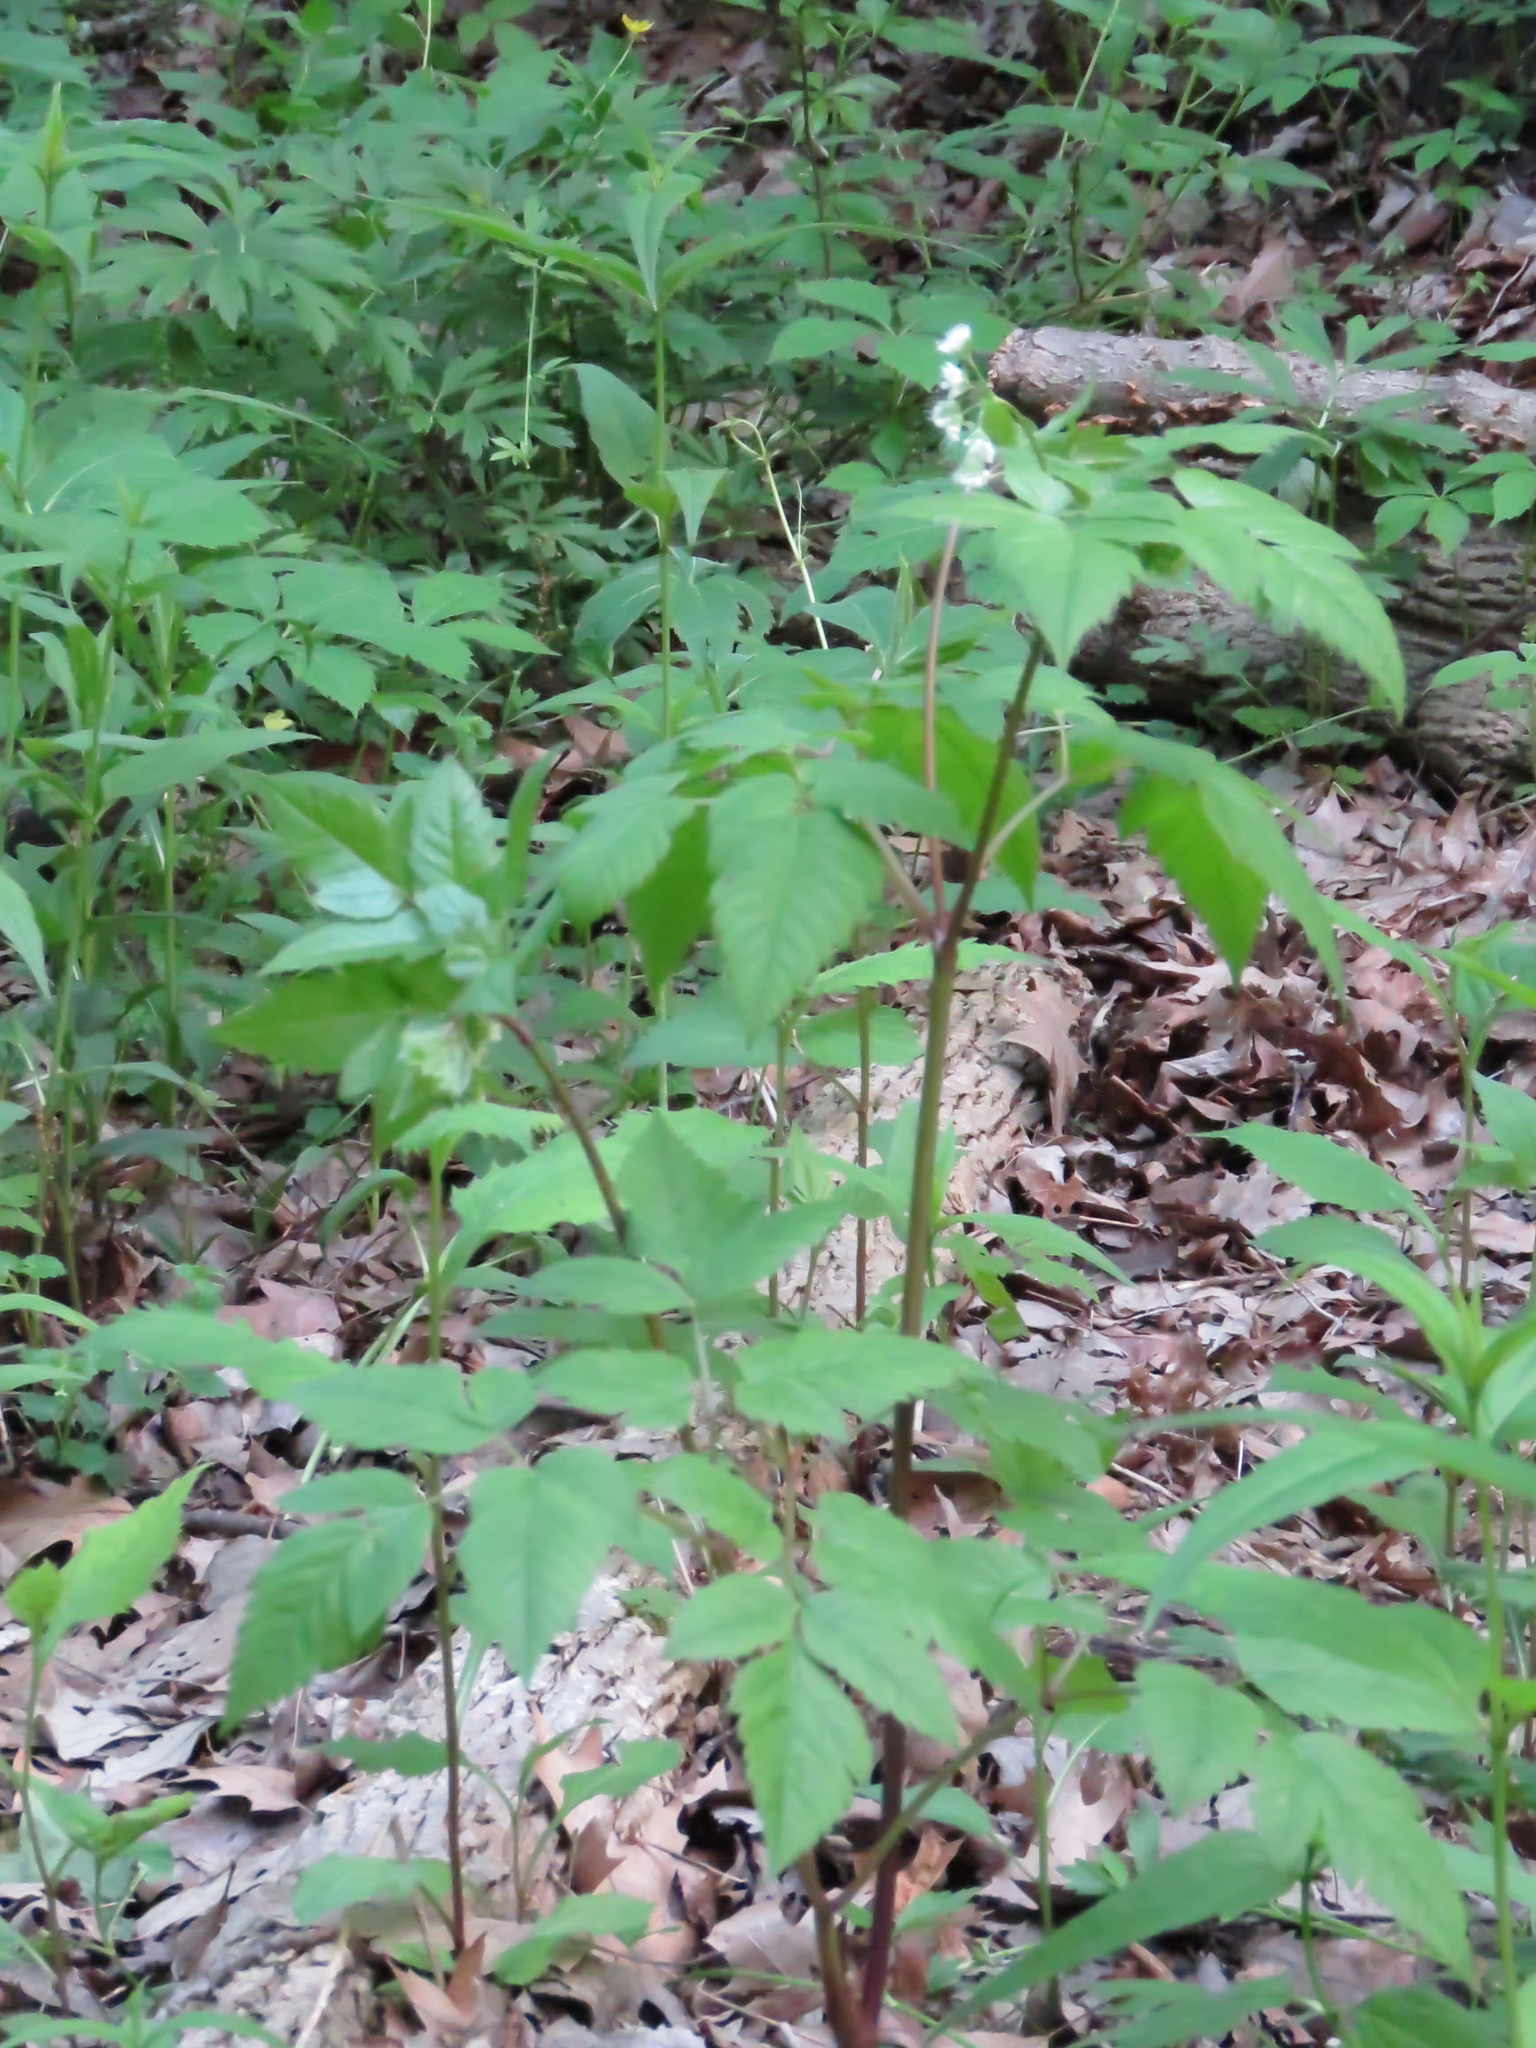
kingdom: Plantae
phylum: Tracheophyta
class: Magnoliopsida
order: Apiales
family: Apiaceae
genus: Osmorhiza
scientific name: Osmorhiza longistylis
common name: Smooth sweet cicely
